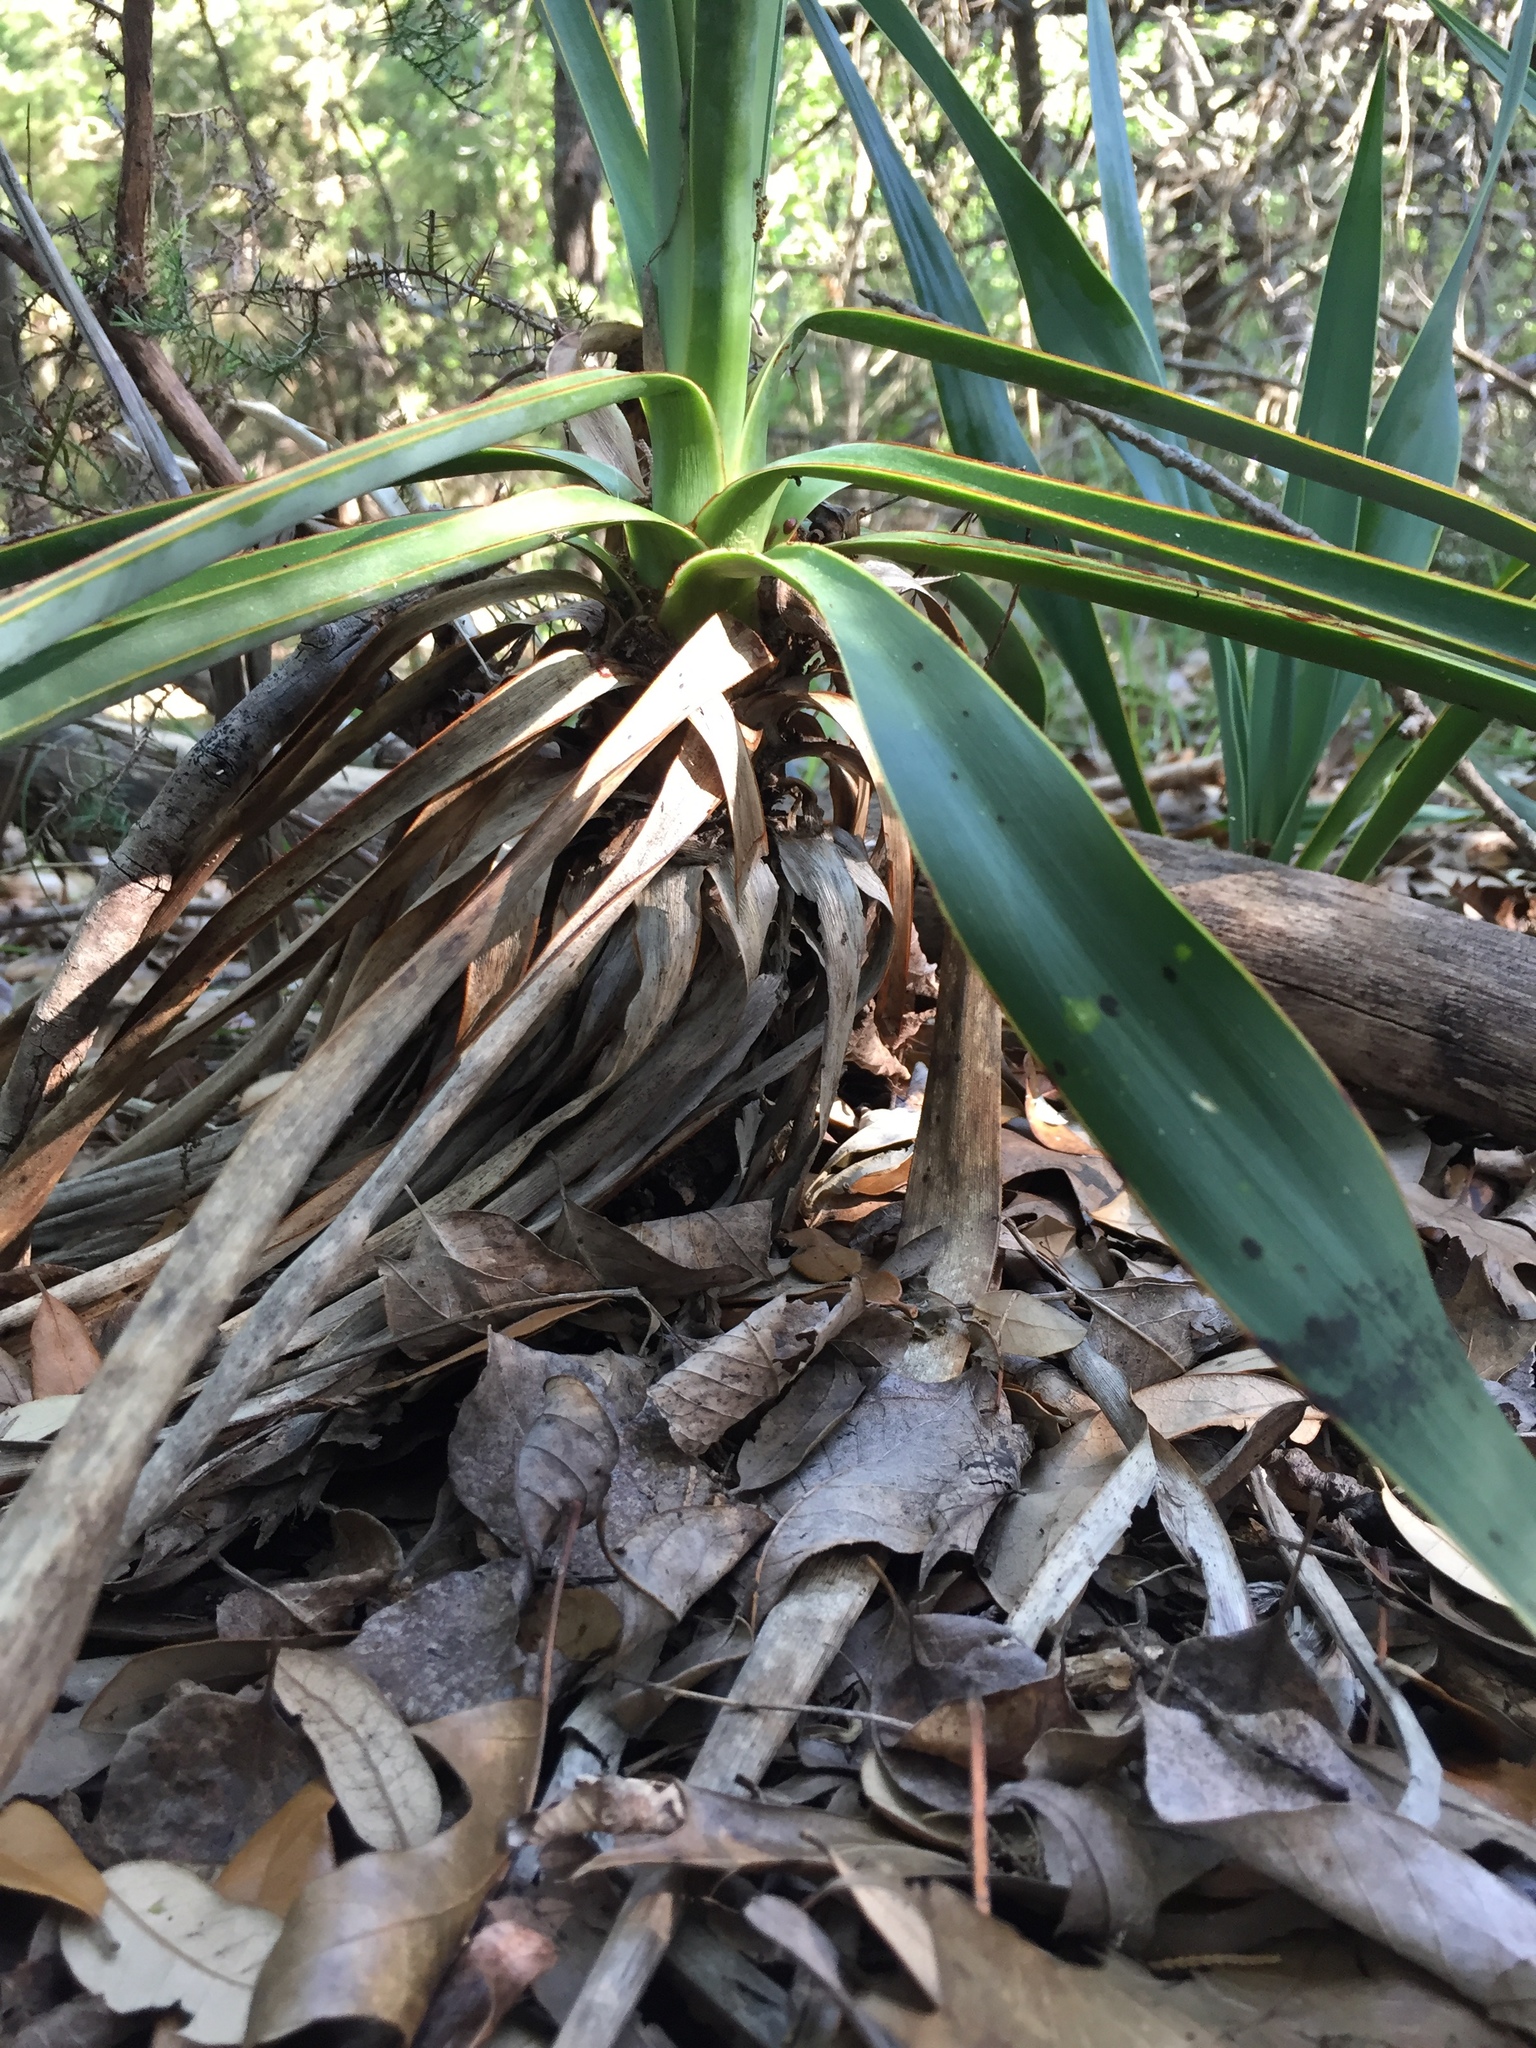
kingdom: Plantae
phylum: Tracheophyta
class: Liliopsida
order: Asparagales
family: Asparagaceae
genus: Yucca
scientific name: Yucca pallida
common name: Pale leaf yucca
